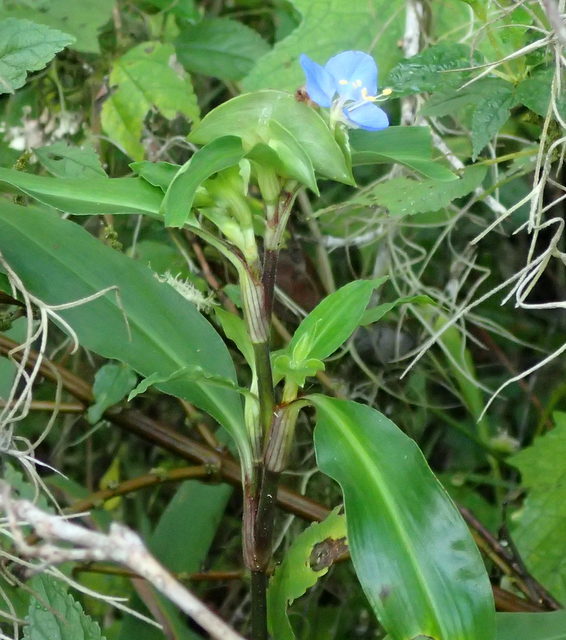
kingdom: Plantae
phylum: Tracheophyta
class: Liliopsida
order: Commelinales
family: Commelinaceae
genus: Commelina
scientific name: Commelina virginica
